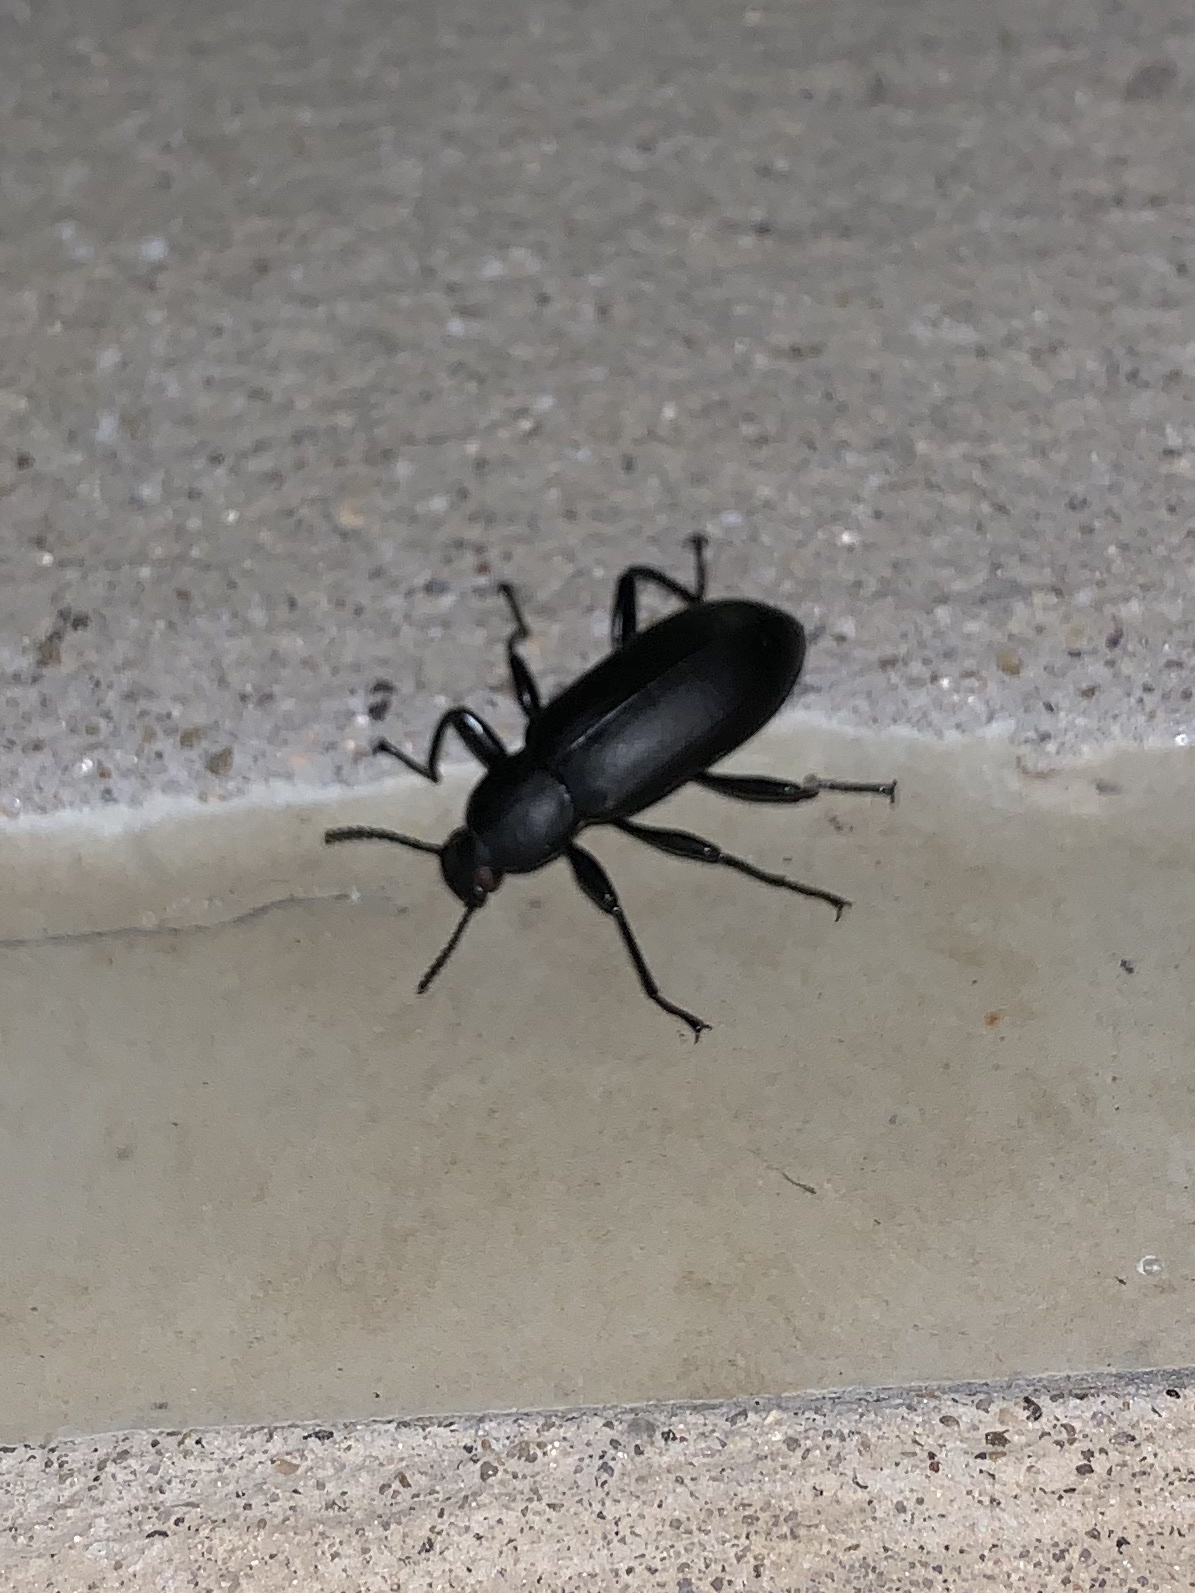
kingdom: Animalia
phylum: Arthropoda
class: Insecta
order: Coleoptera
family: Tenebrionidae
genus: Merinus
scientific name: Merinus laevis
